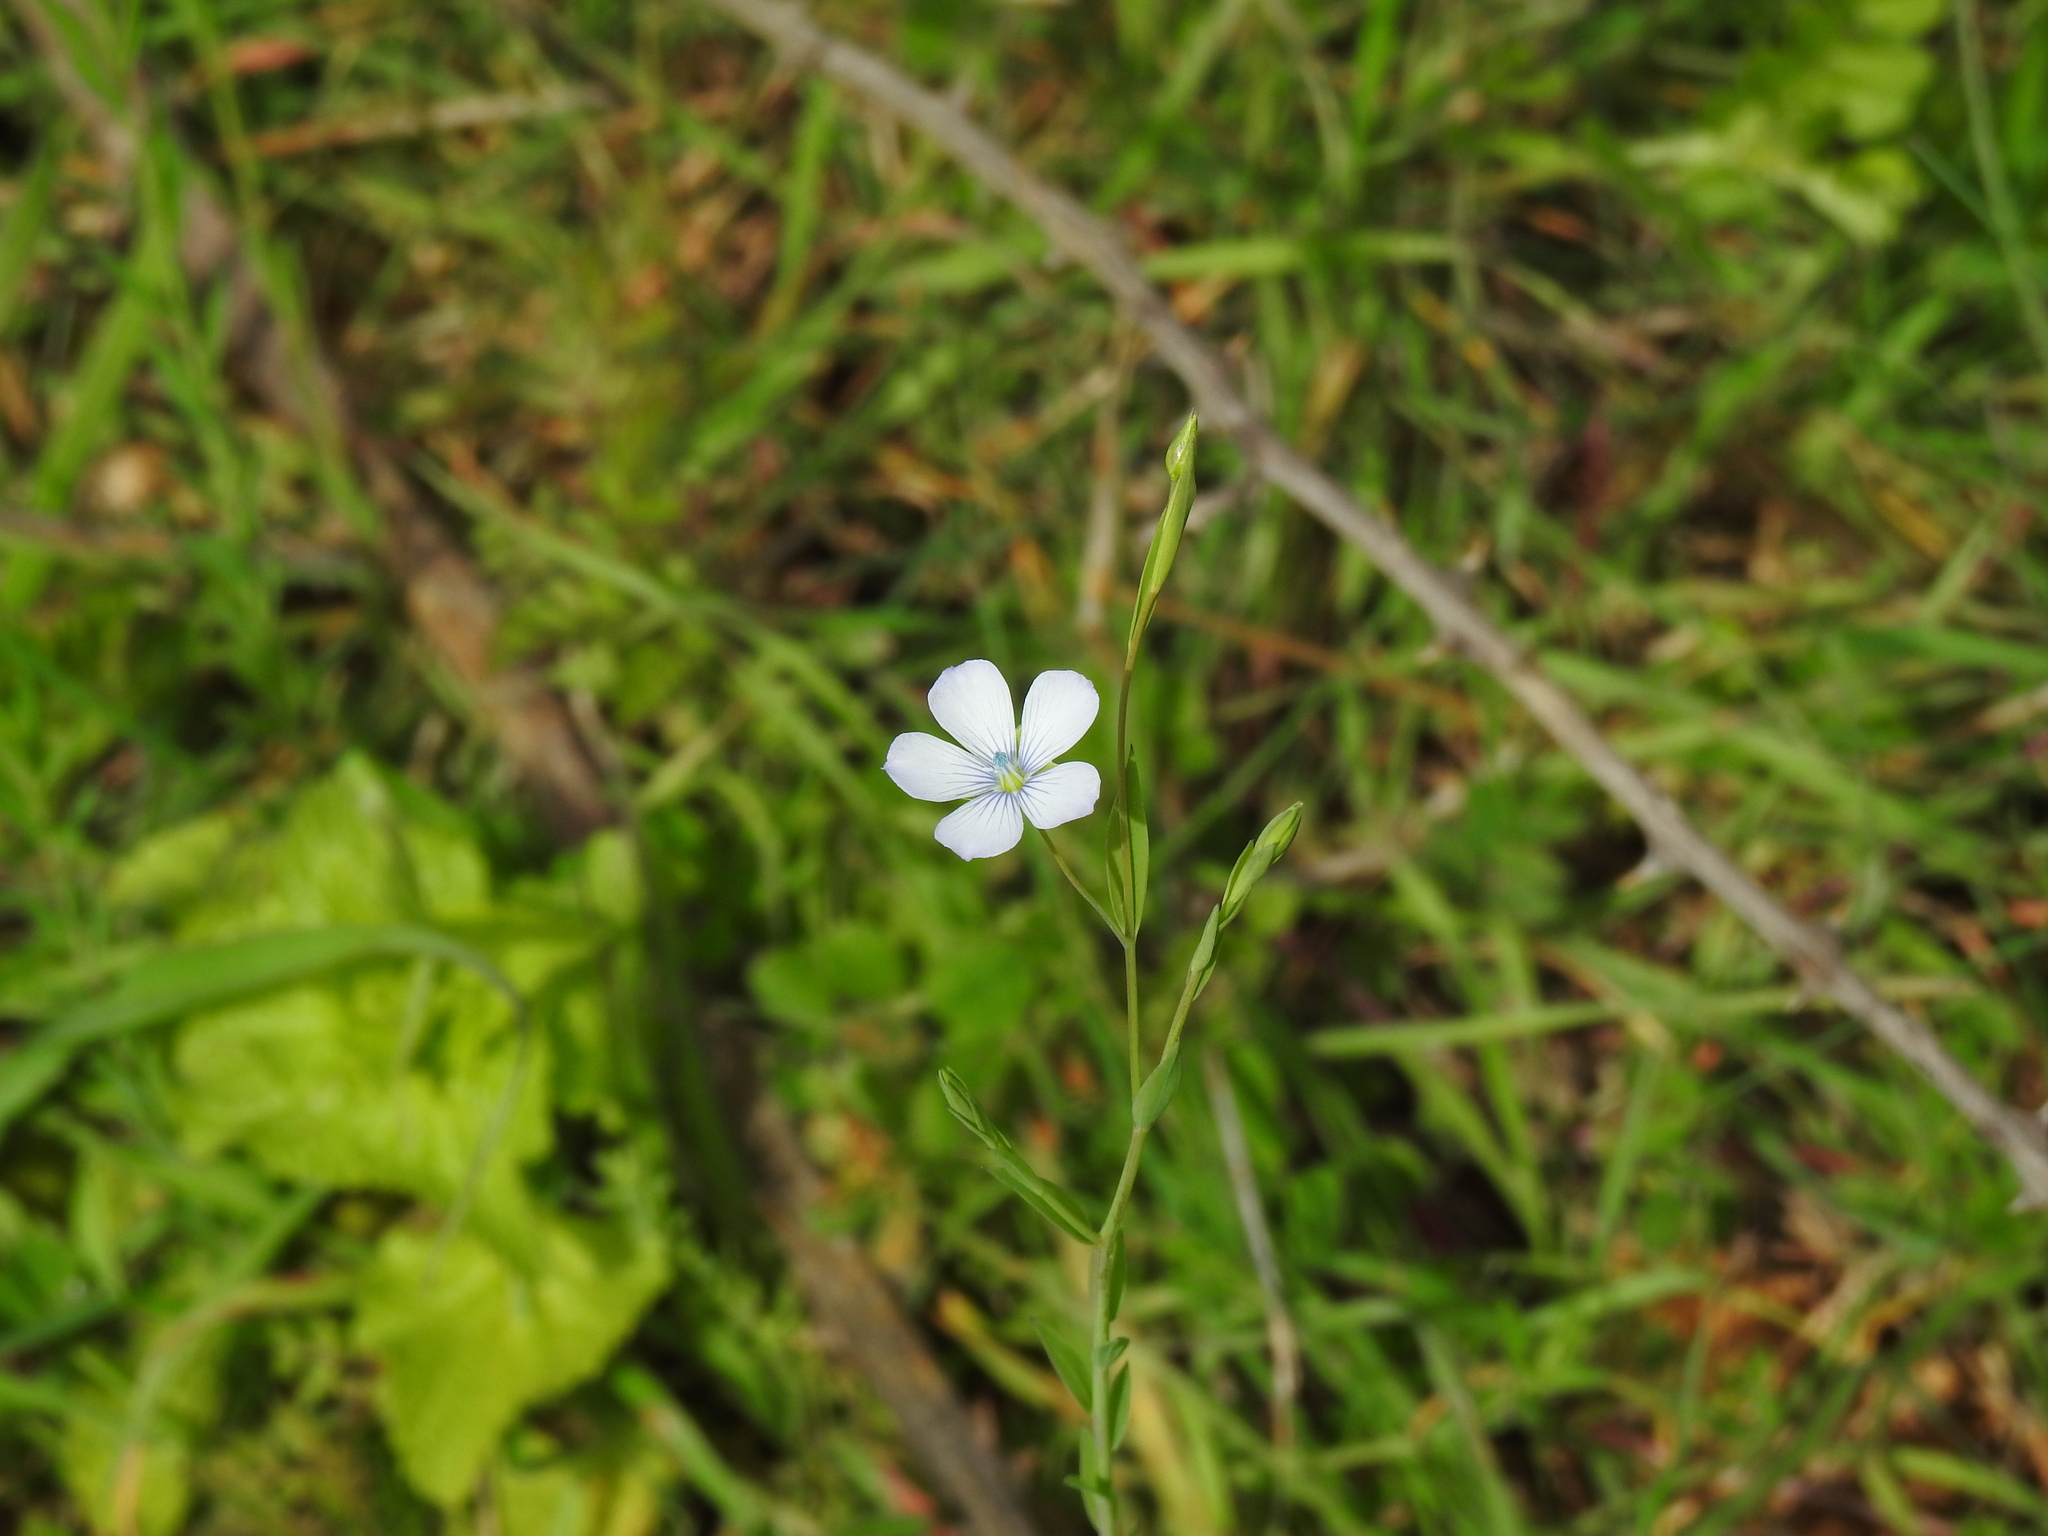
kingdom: Plantae
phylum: Tracheophyta
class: Magnoliopsida
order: Malpighiales
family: Linaceae
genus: Linum
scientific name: Linum bienne
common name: Pale flax
